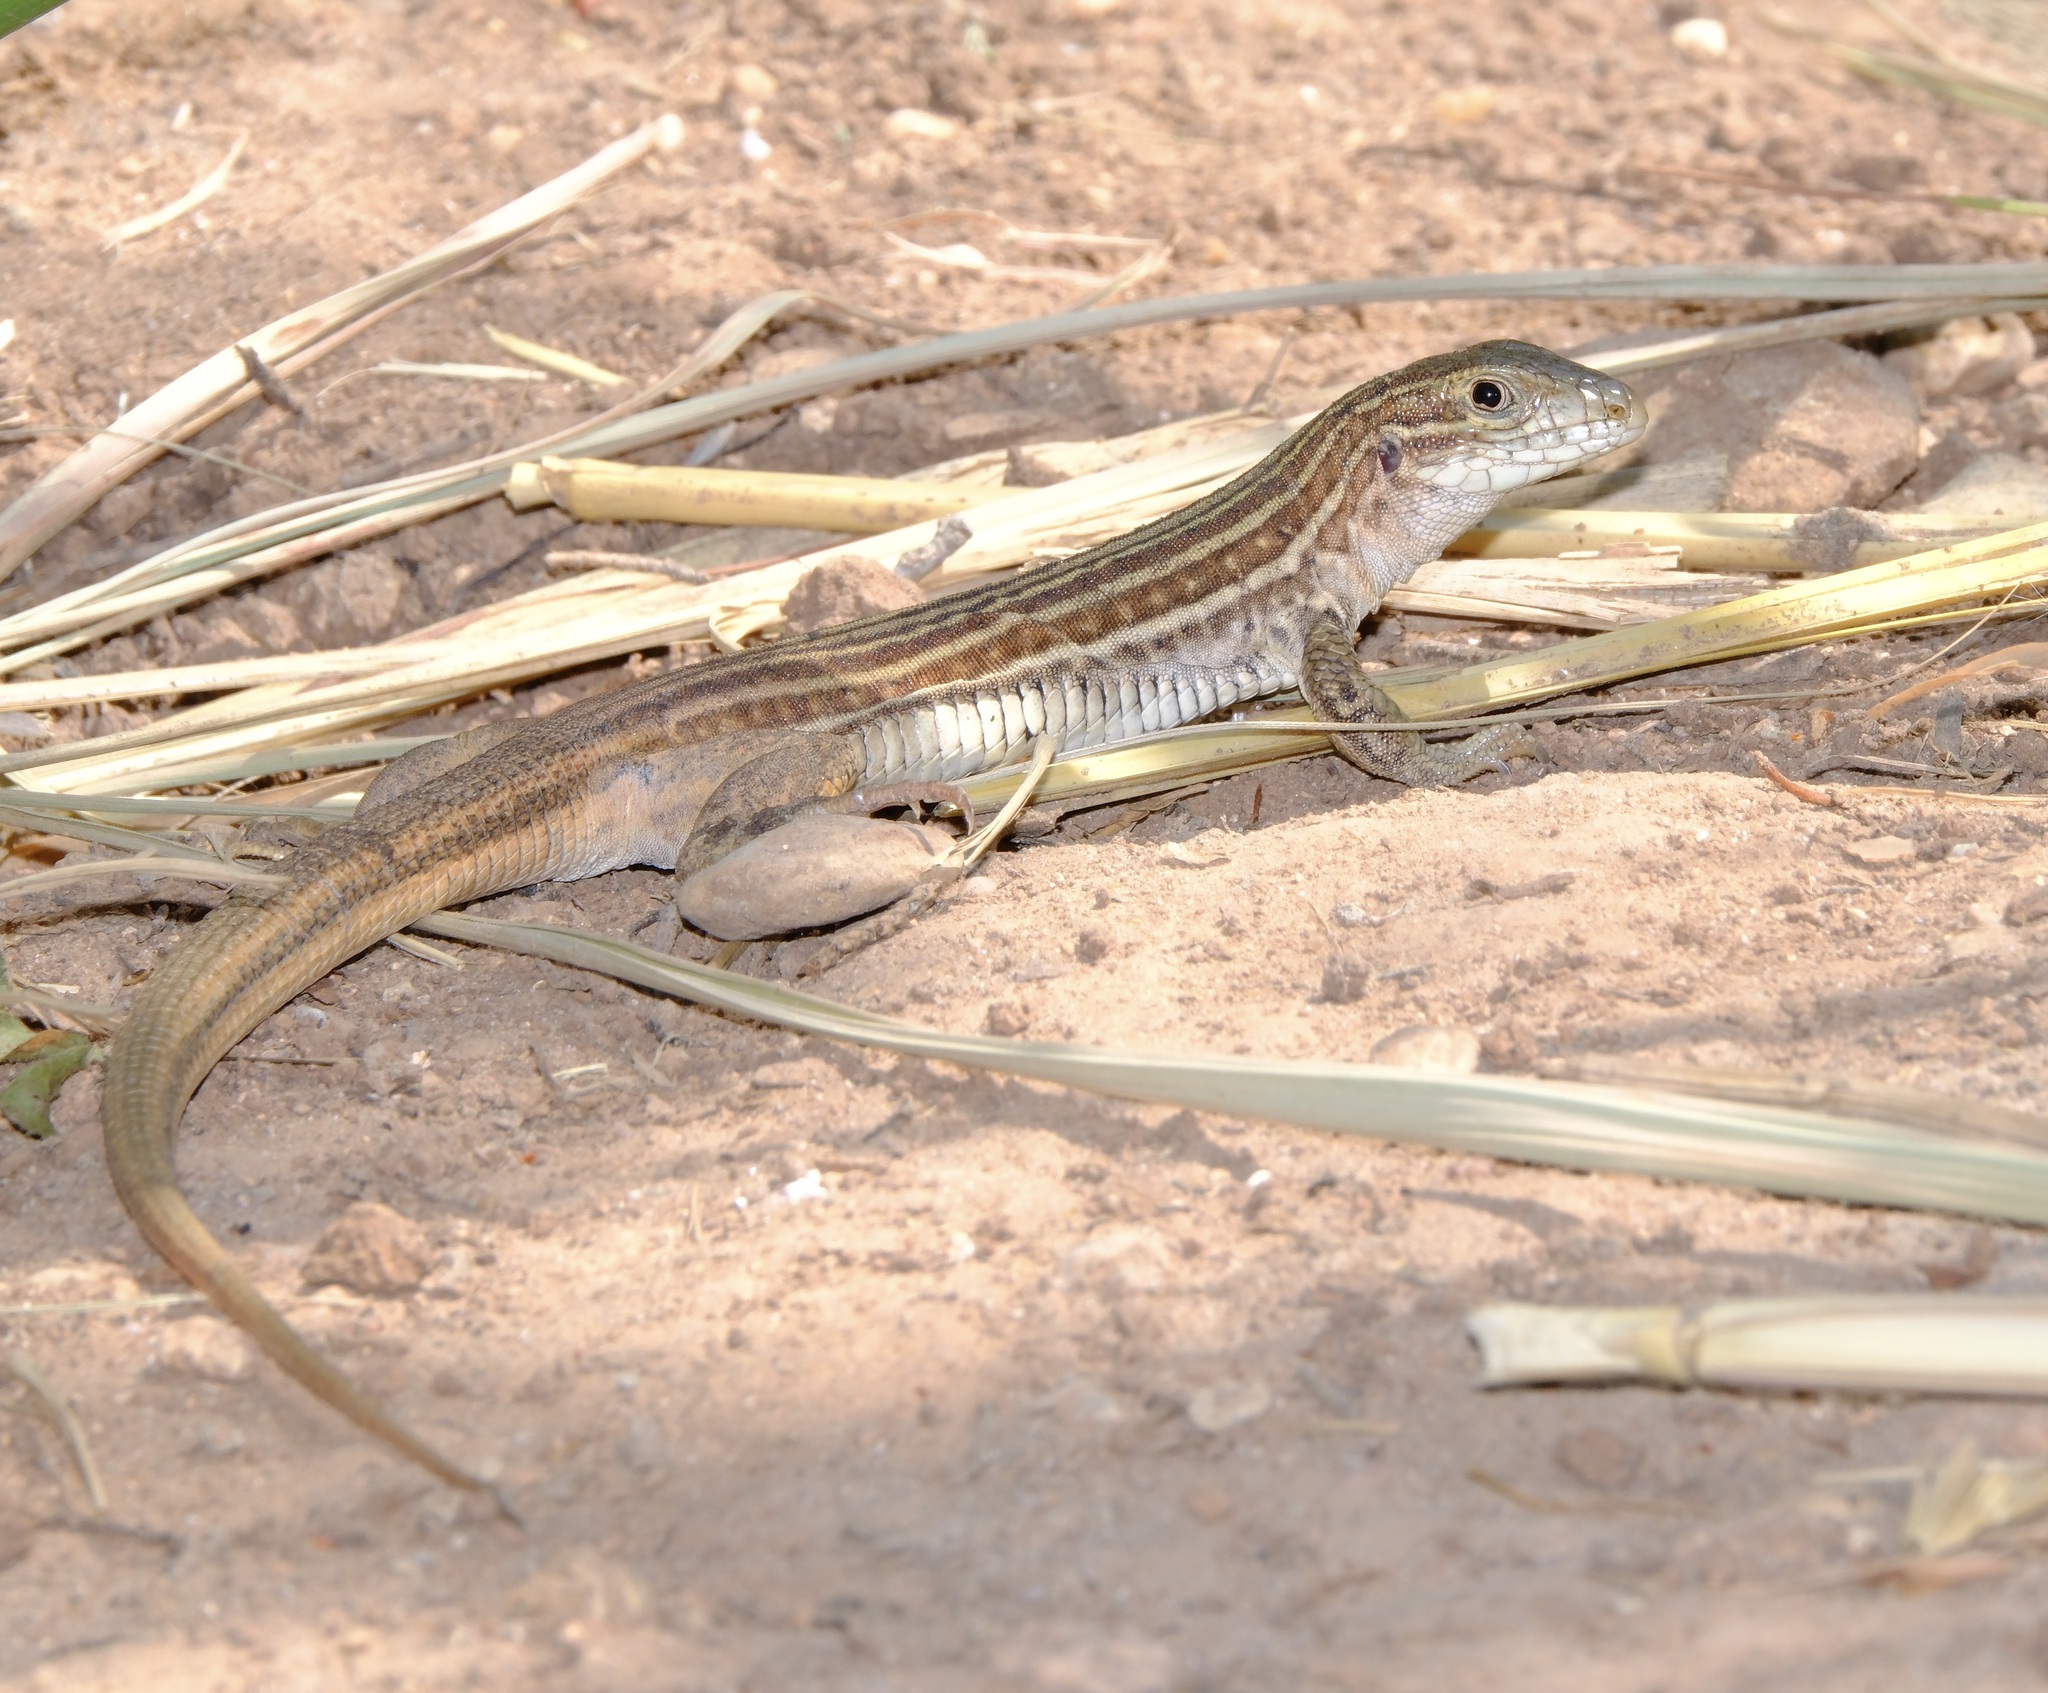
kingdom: Animalia
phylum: Chordata
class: Squamata
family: Teiidae
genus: Aspidoscelis
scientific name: Aspidoscelis gularis
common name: Eastern spotted whiptail
